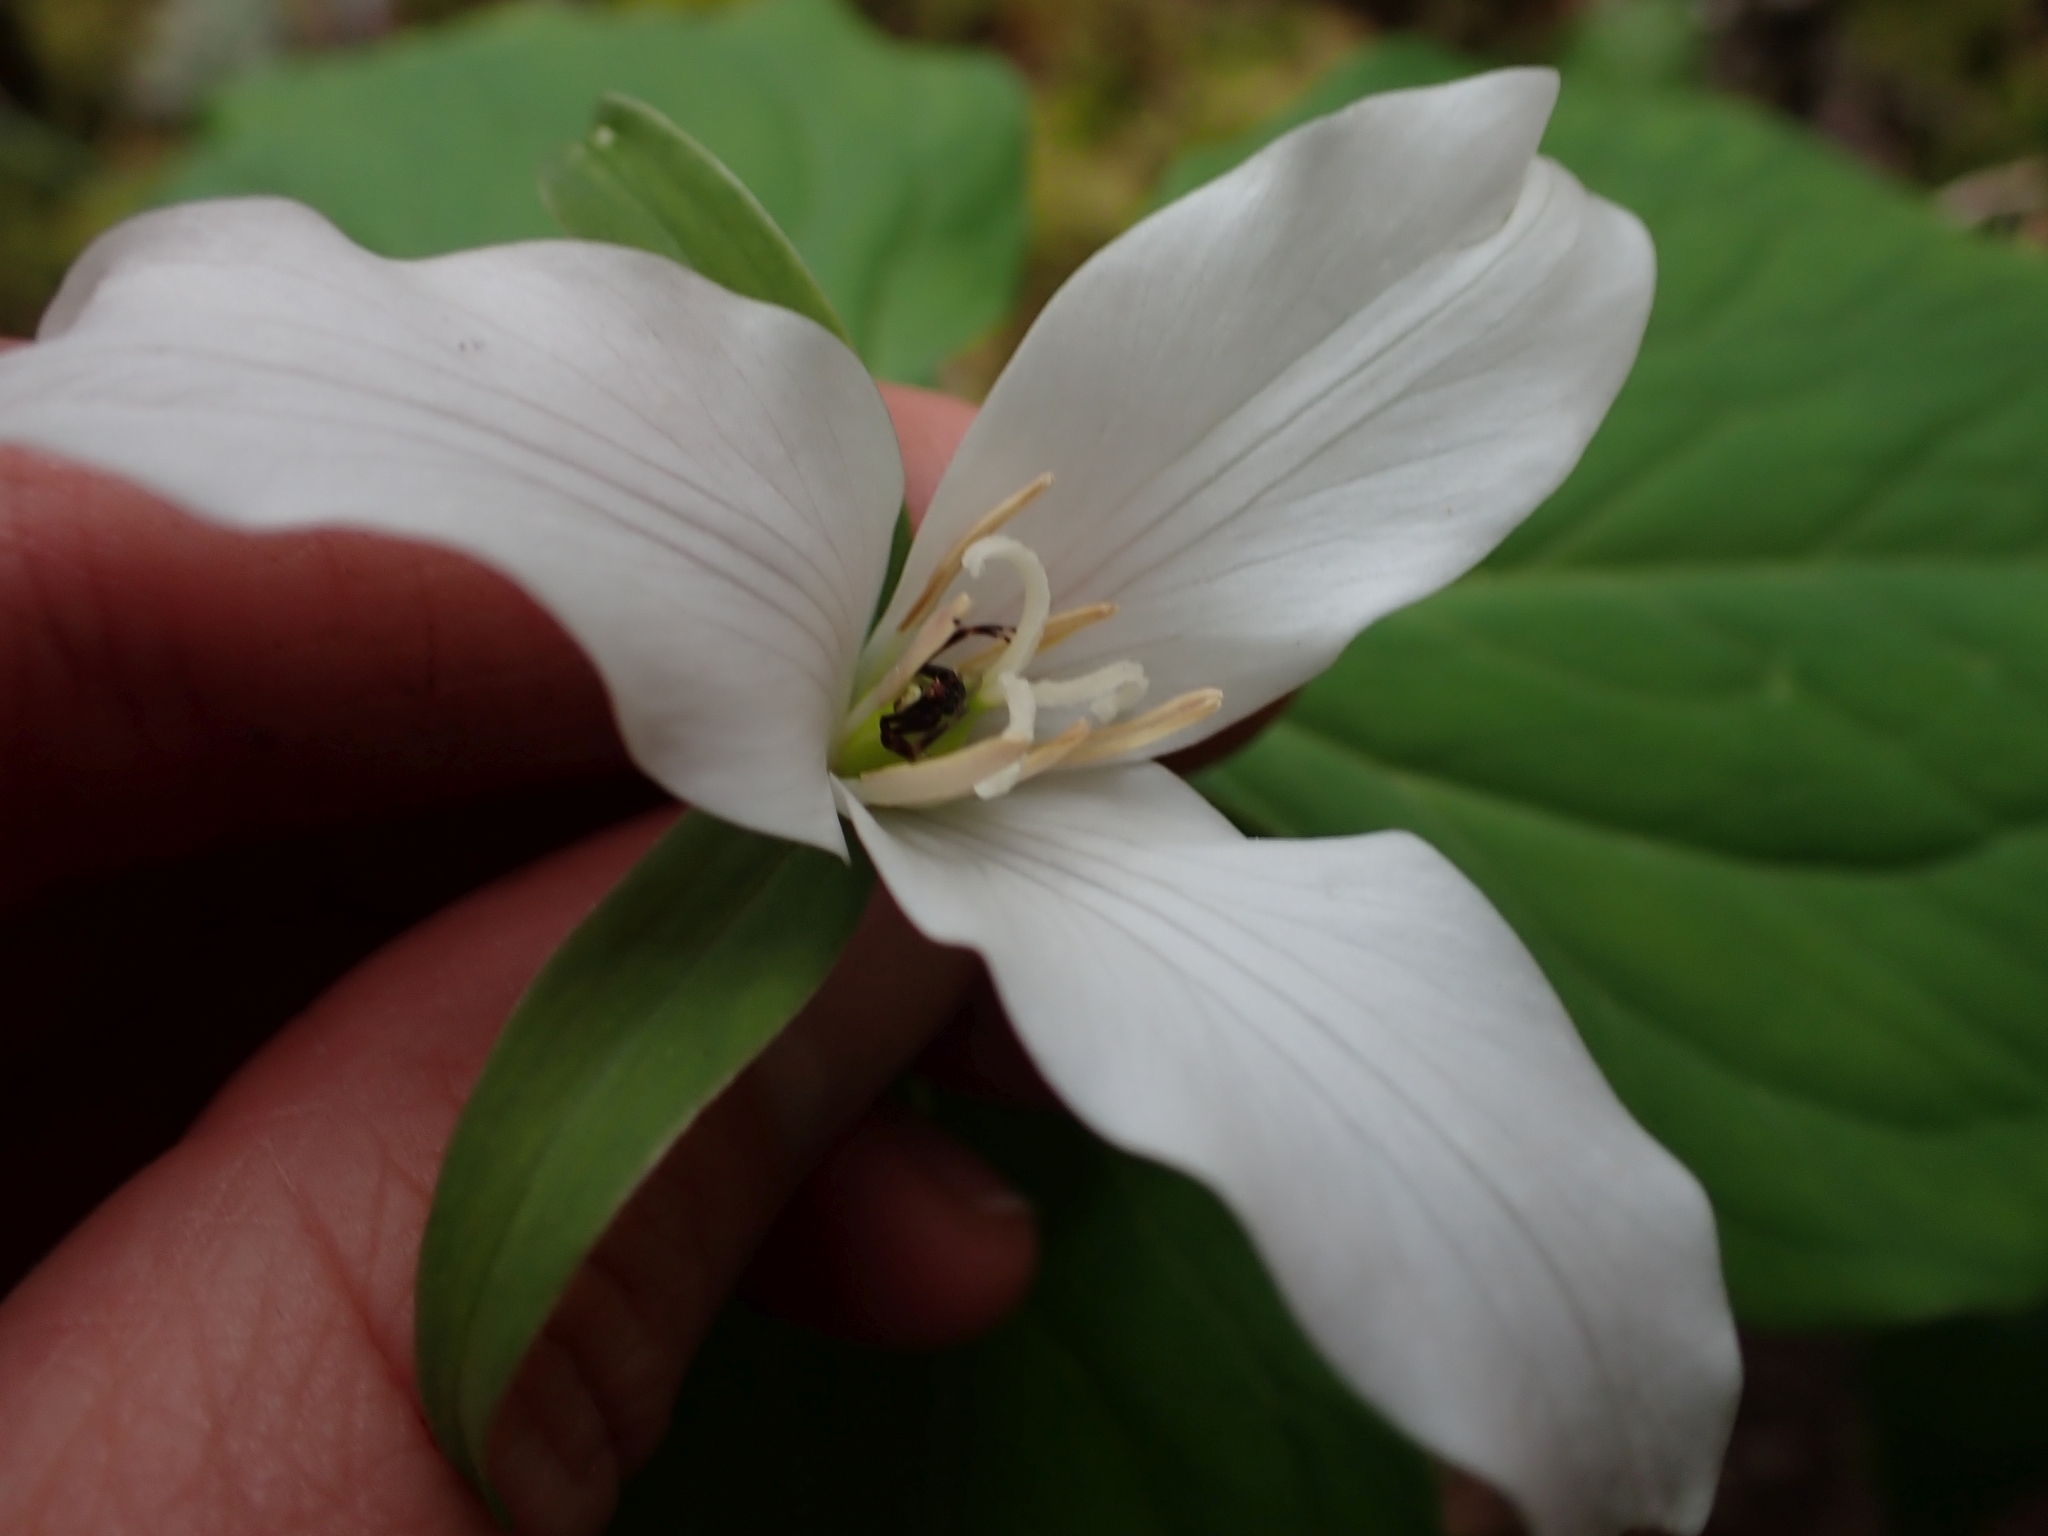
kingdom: Animalia
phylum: Arthropoda
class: Arachnida
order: Araneae
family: Thomisidae
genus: Misumena
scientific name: Misumena vatia
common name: Goldenrod crab spider
